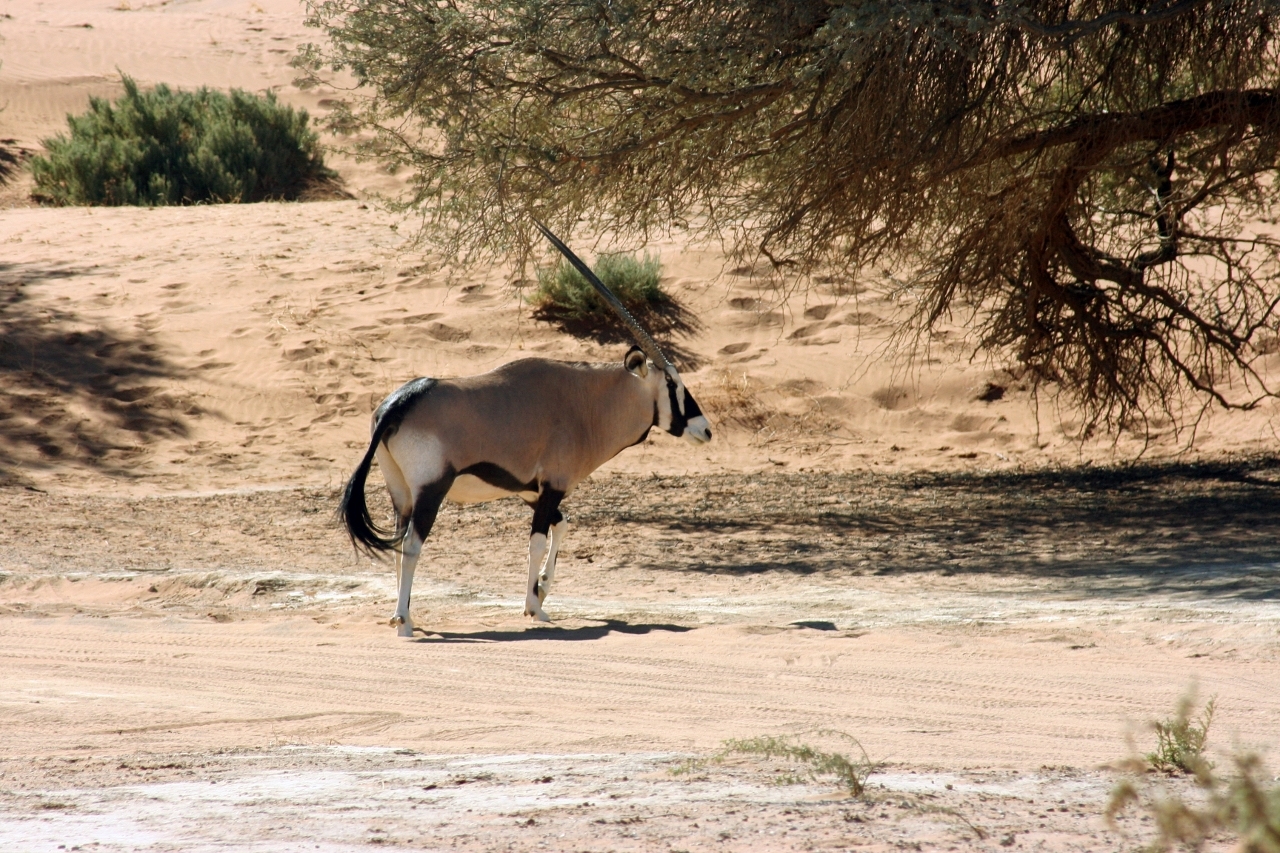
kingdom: Animalia
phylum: Chordata
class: Mammalia
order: Artiodactyla
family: Bovidae
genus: Oryx
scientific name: Oryx gazella
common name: Gemsbok
